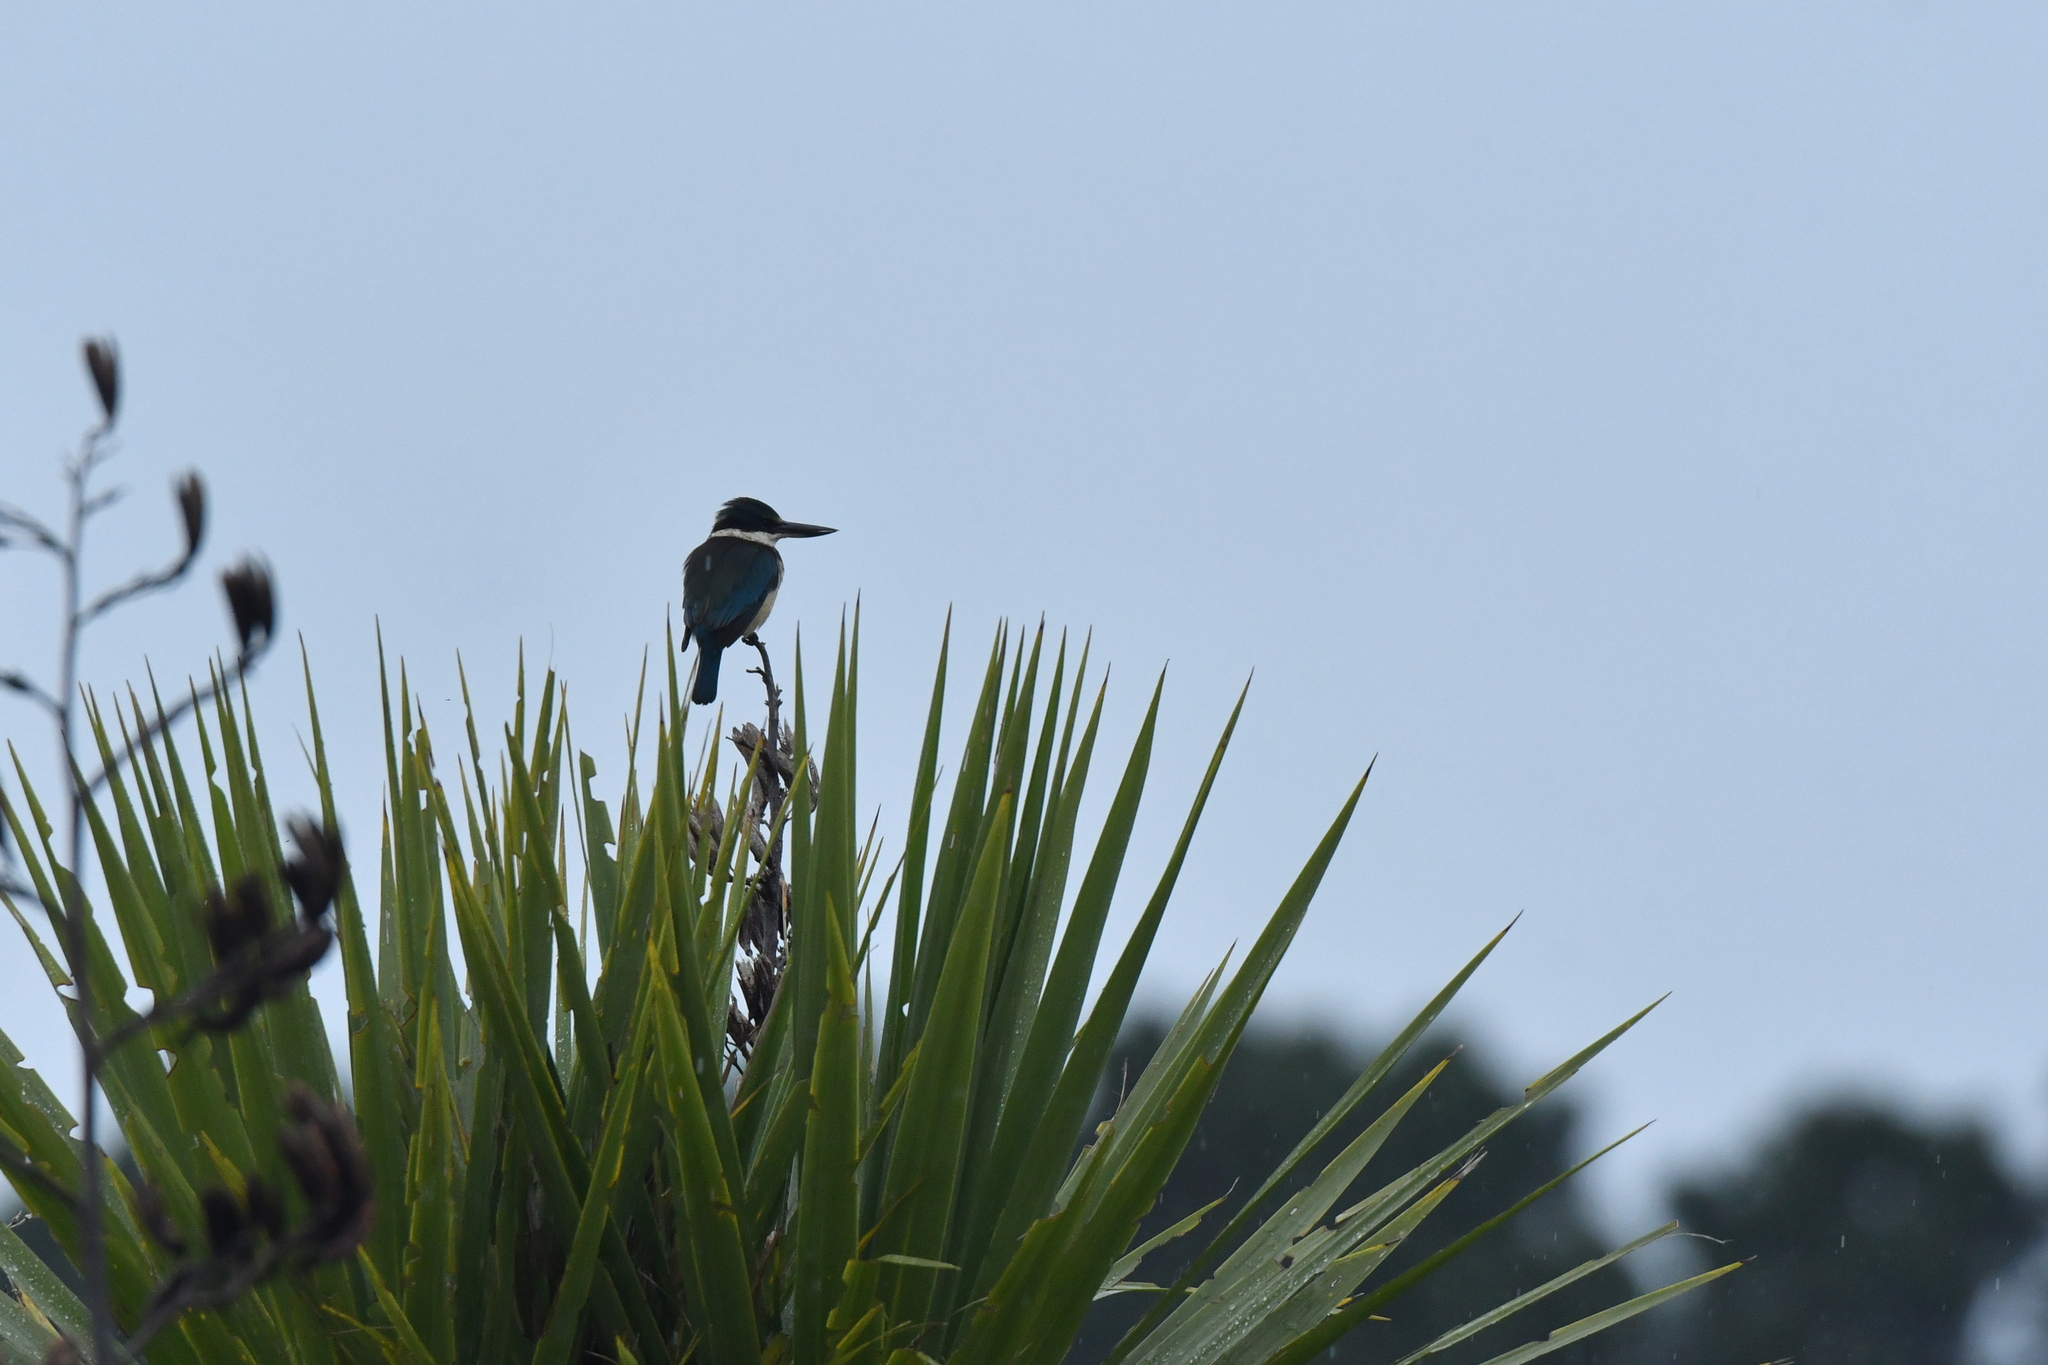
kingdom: Animalia
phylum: Chordata
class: Aves
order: Coraciiformes
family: Alcedinidae
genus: Todiramphus
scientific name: Todiramphus sanctus
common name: Sacred kingfisher
